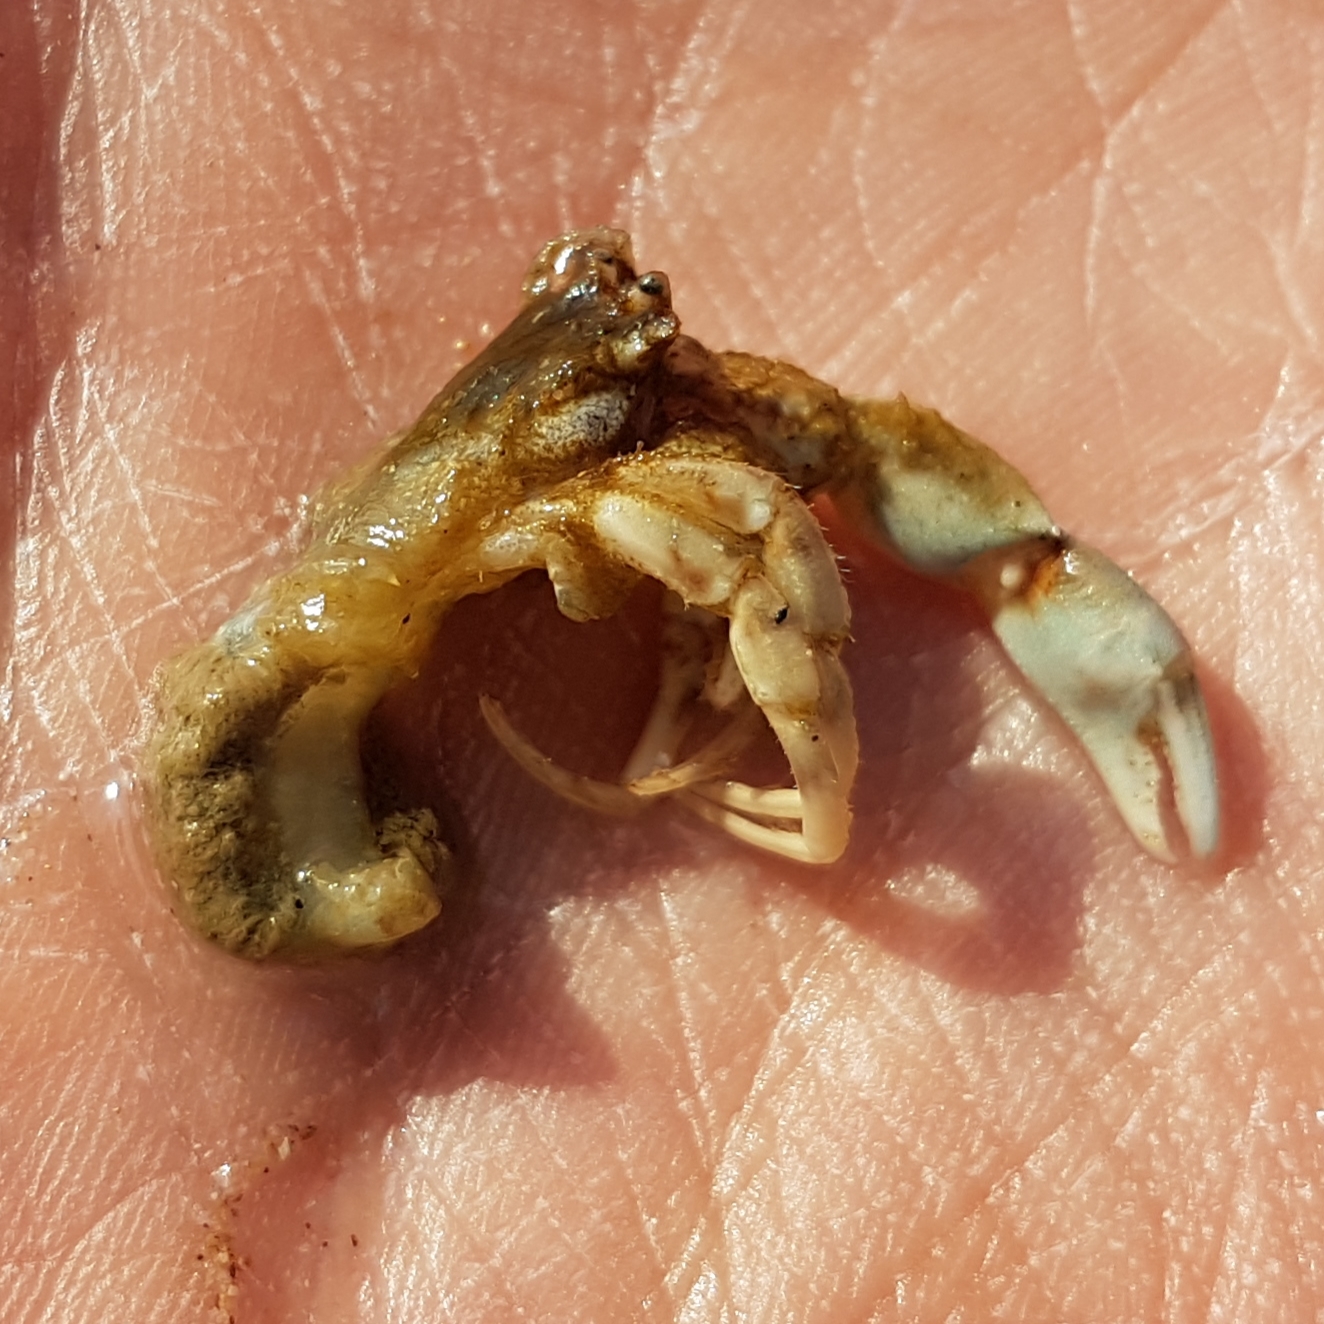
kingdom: Animalia
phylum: Arthropoda
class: Malacostraca
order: Decapoda
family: Diogenidae
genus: Diogenes
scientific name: Diogenes pugilator
